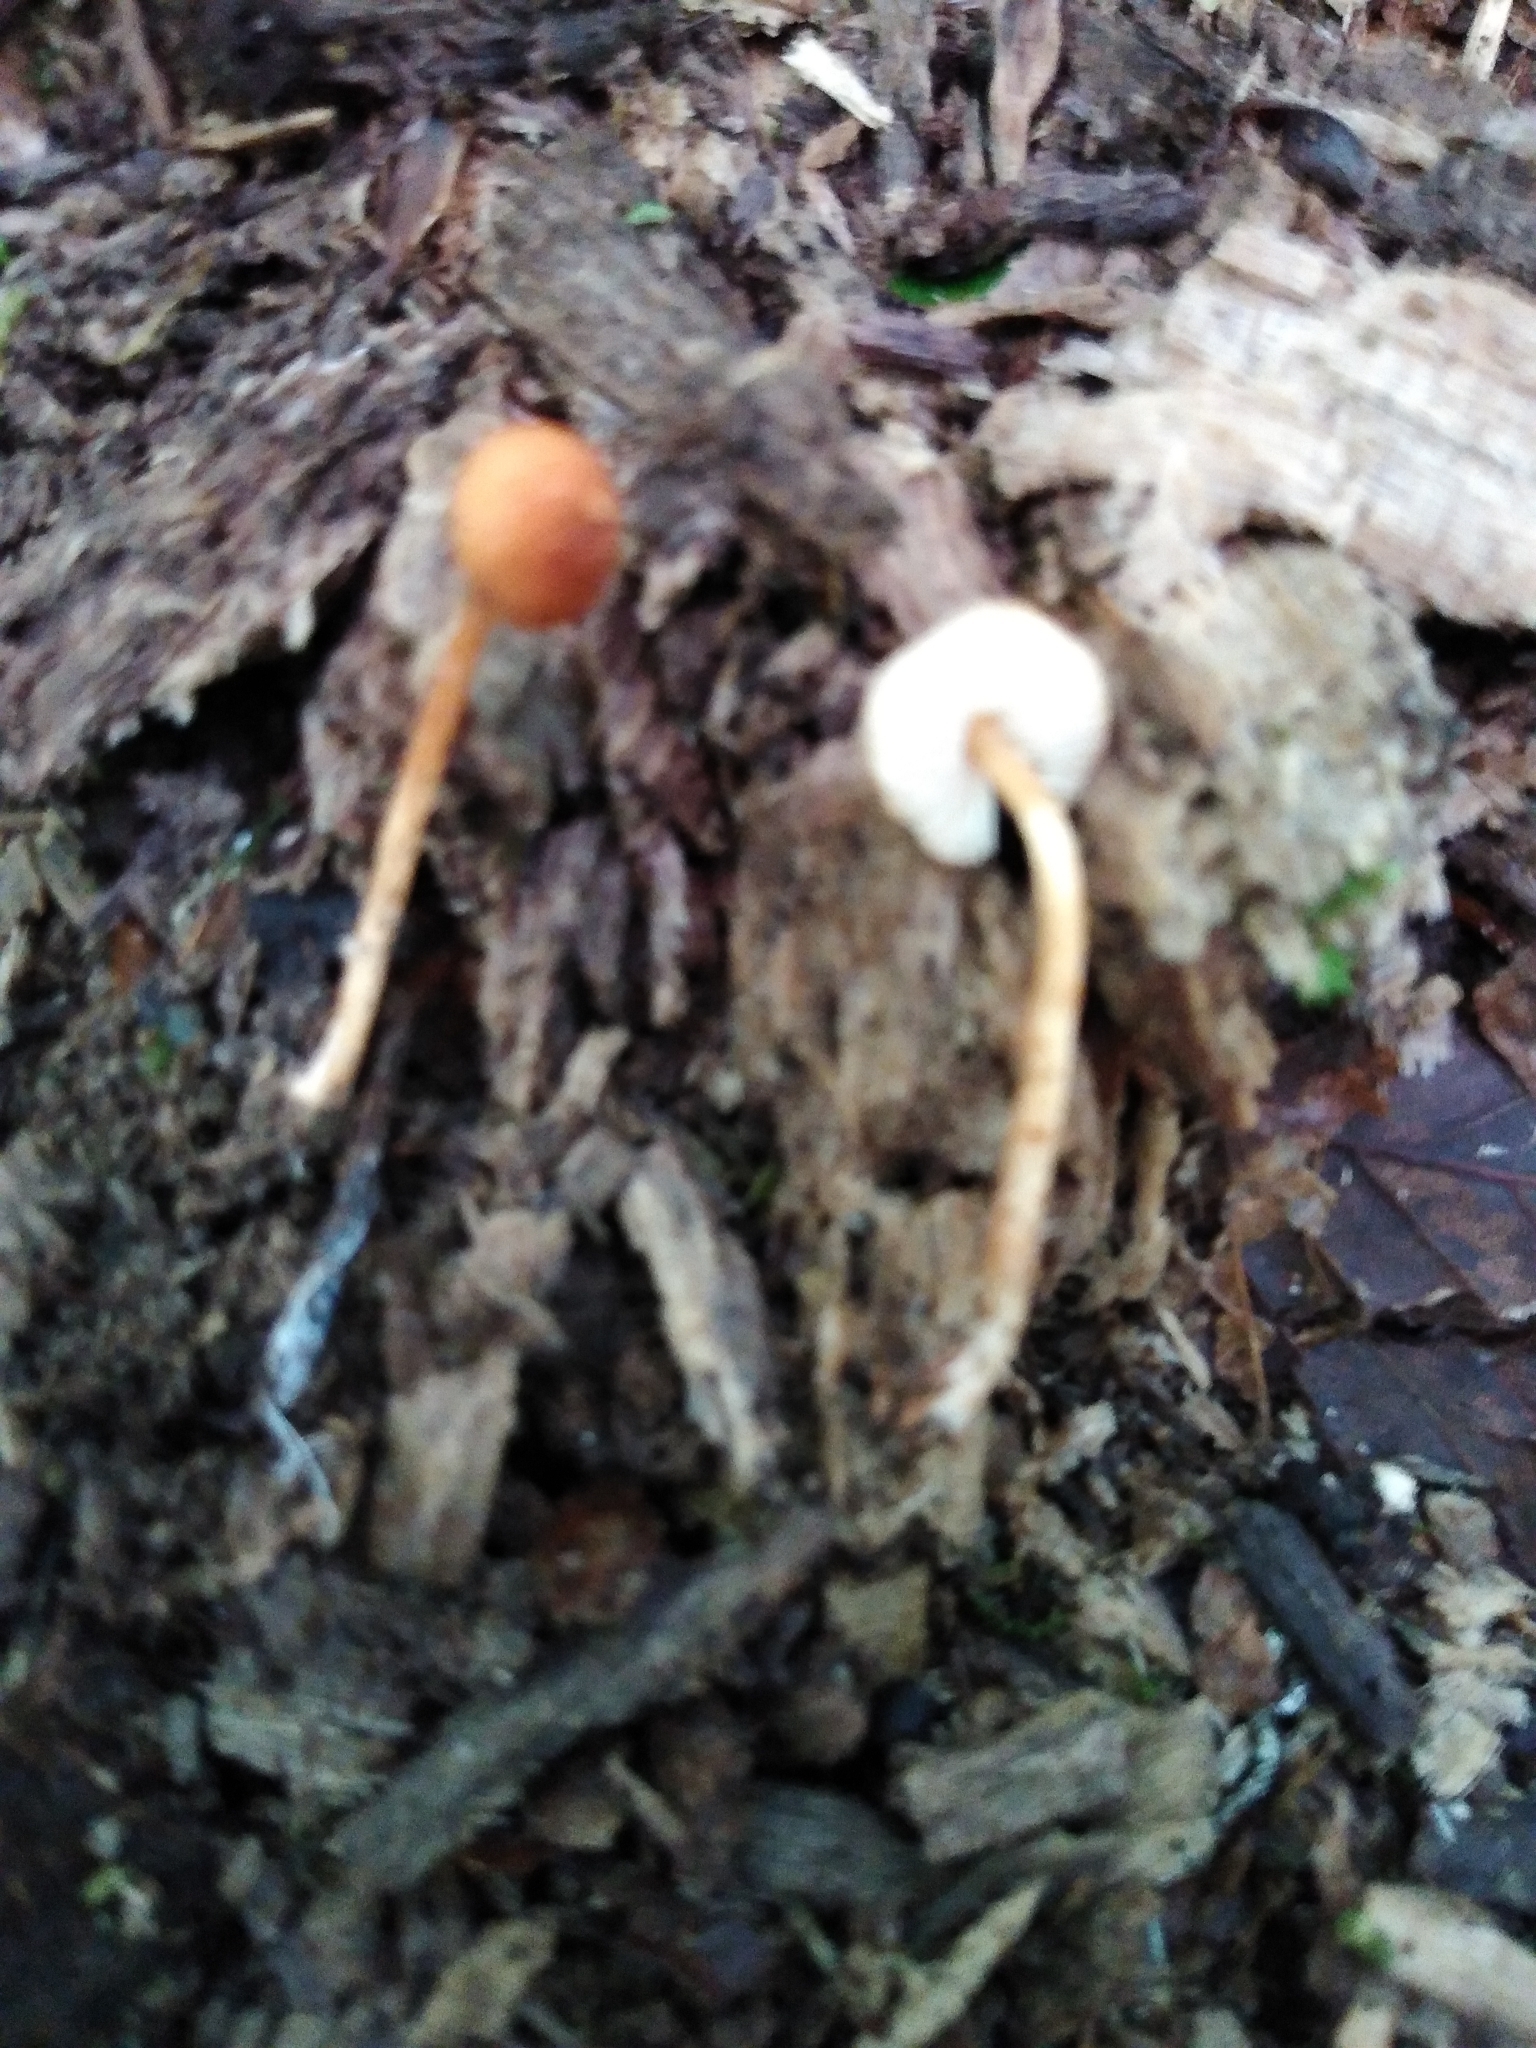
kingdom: Fungi
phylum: Basidiomycota
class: Agaricomycetes
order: Agaricales
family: Agaricaceae
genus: Lepiota
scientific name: Lepiota castanea
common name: Chestnut dapperling
